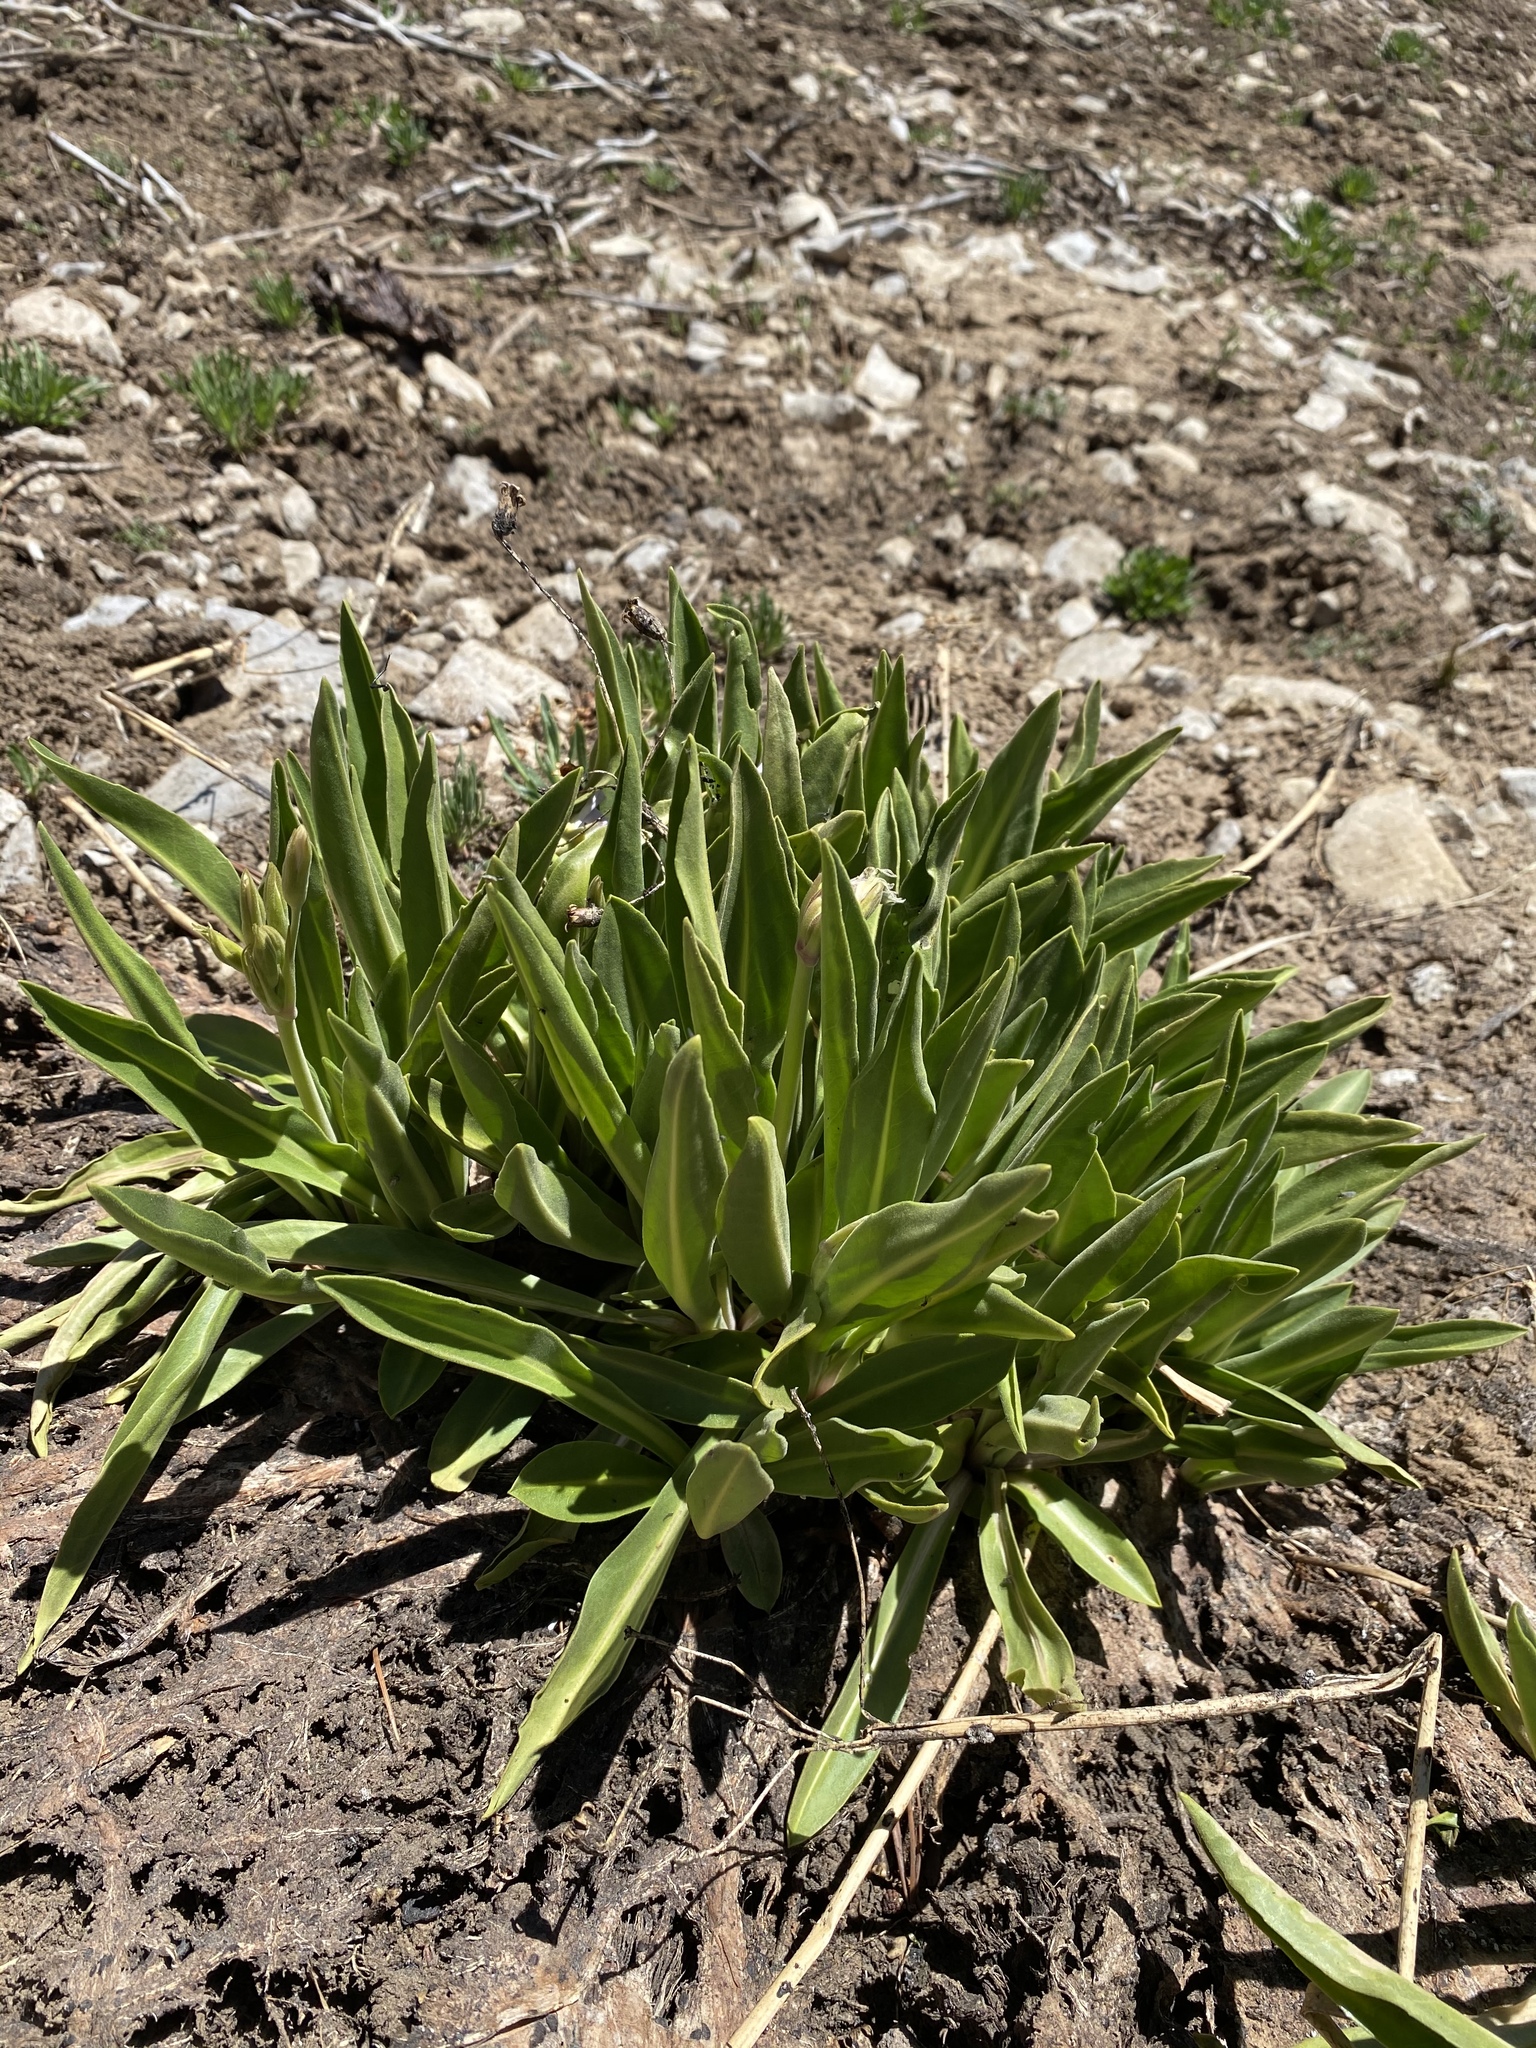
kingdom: Plantae
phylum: Tracheophyta
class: Magnoliopsida
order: Ericales
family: Primulaceae
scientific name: Primulaceae
